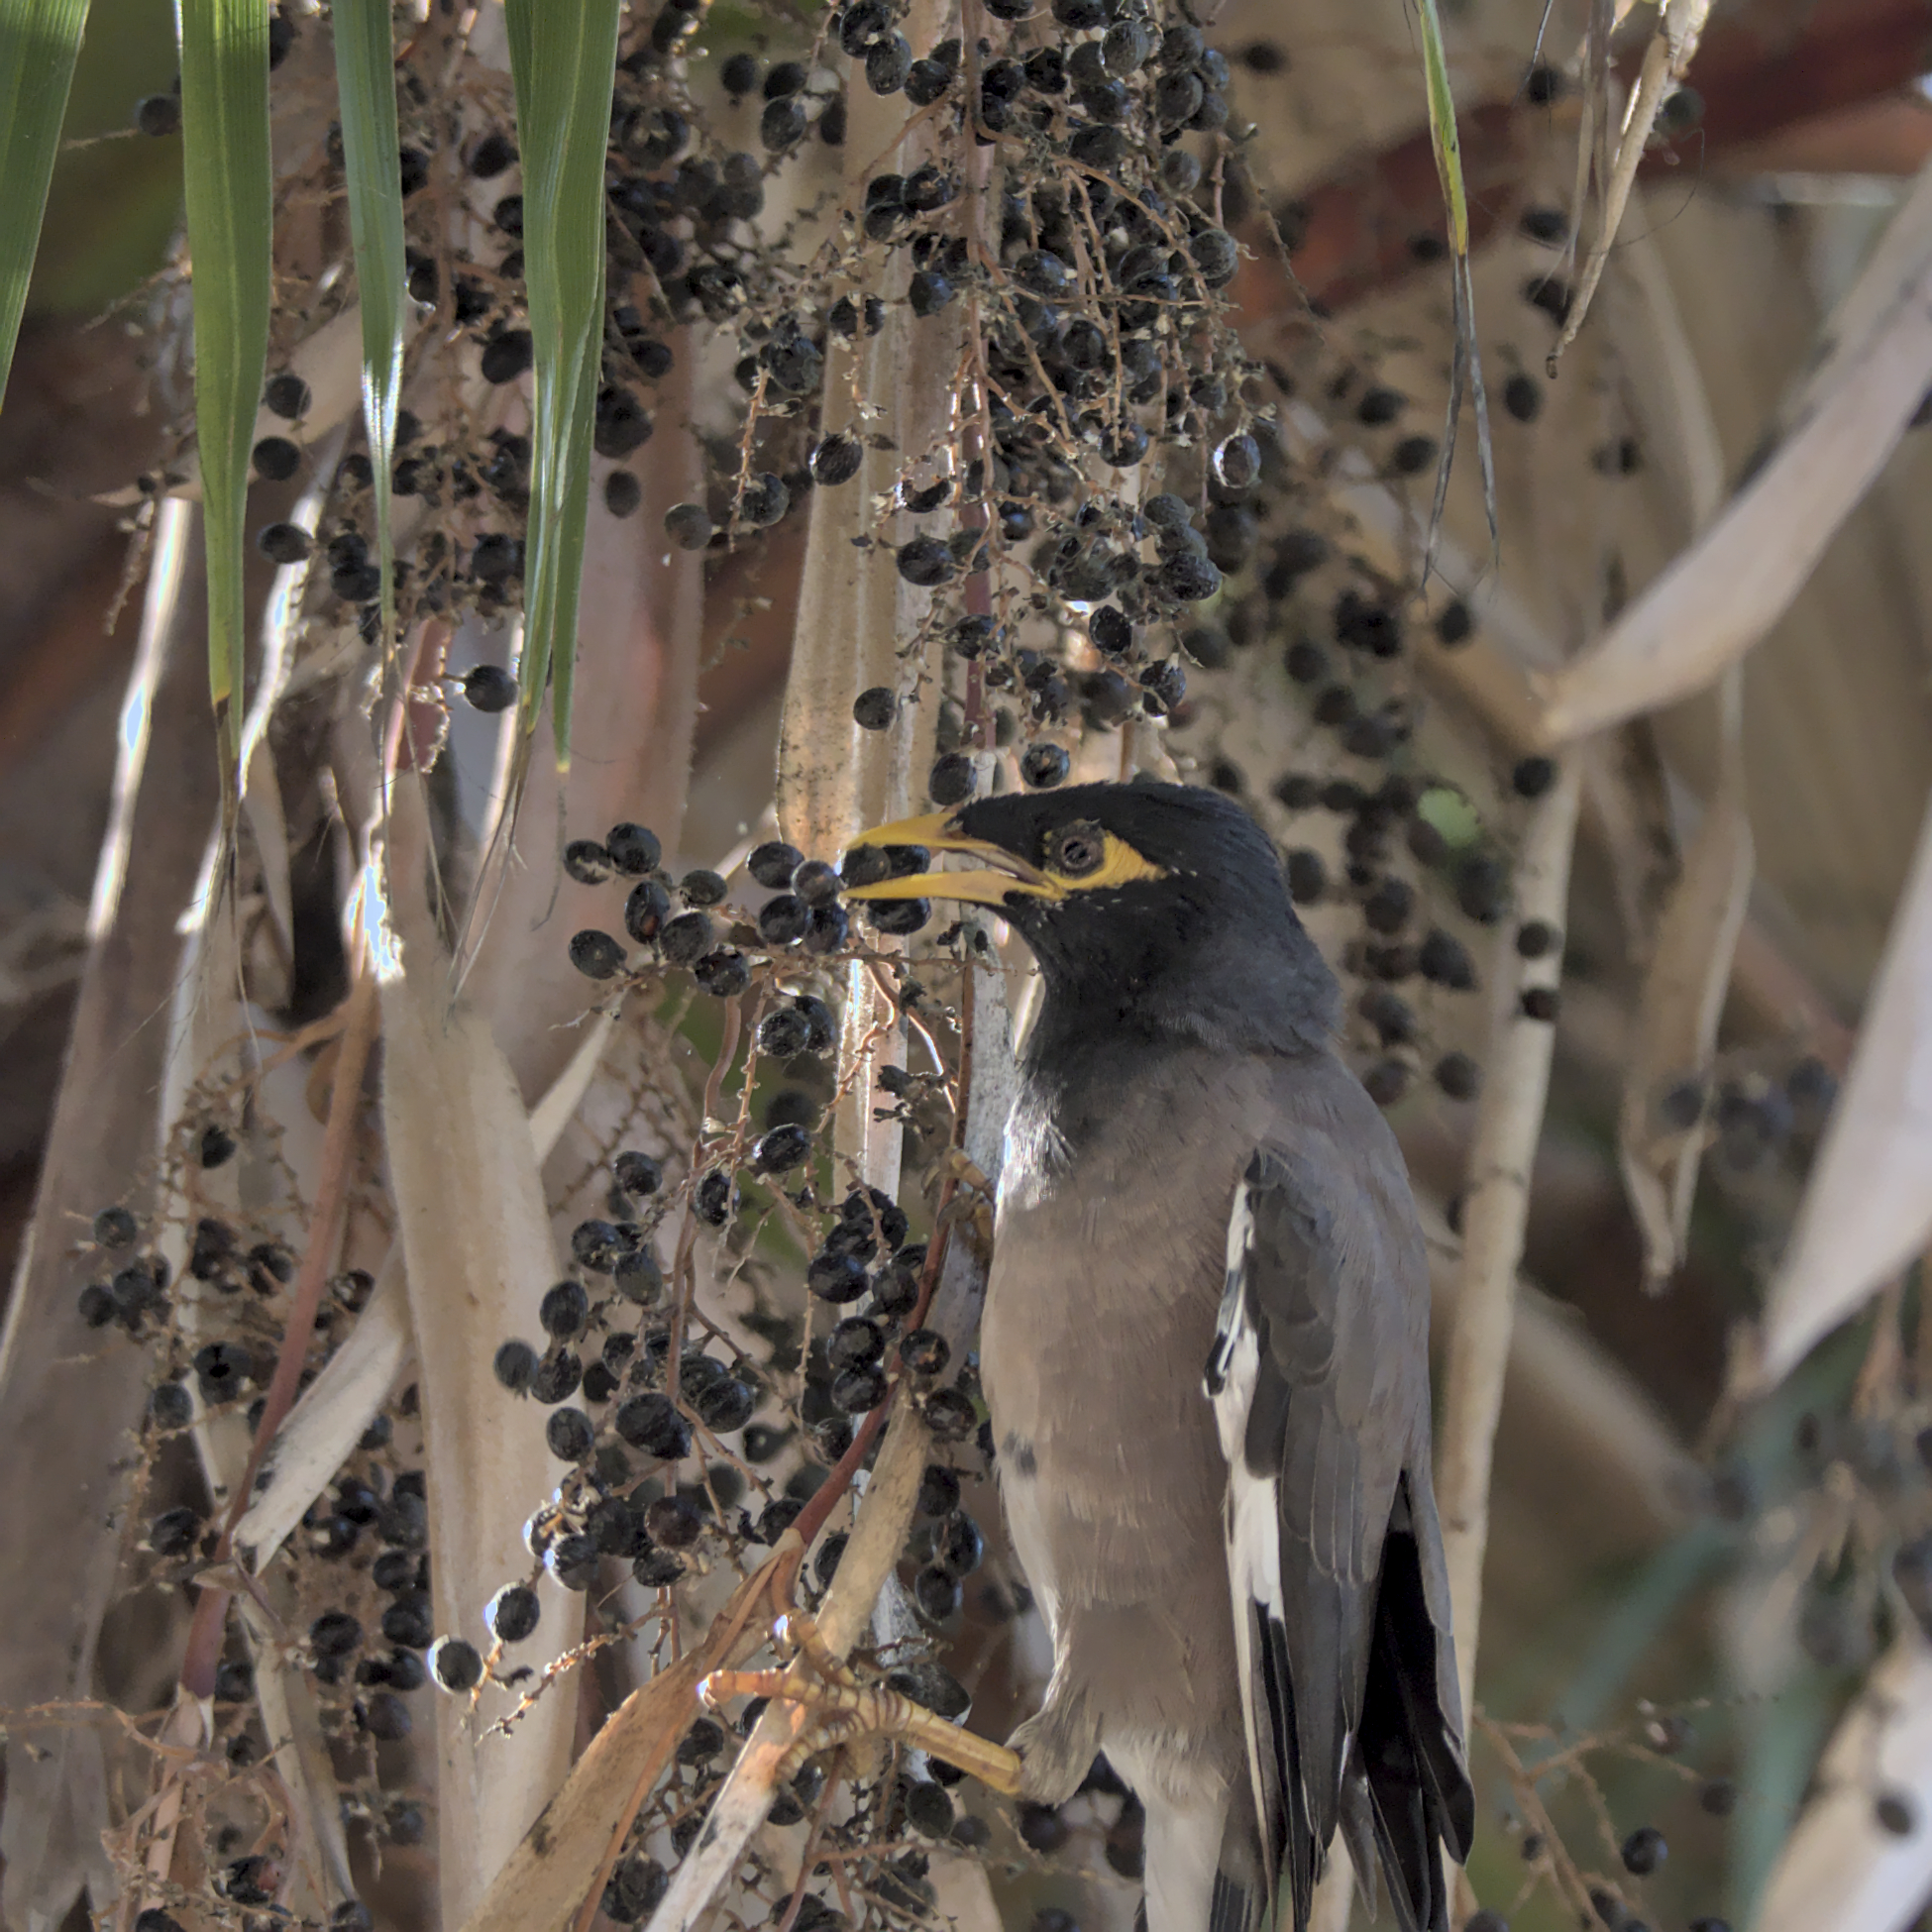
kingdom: Animalia
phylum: Chordata
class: Aves
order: Passeriformes
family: Sturnidae
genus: Acridotheres
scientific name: Acridotheres tristis
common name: Common myna
